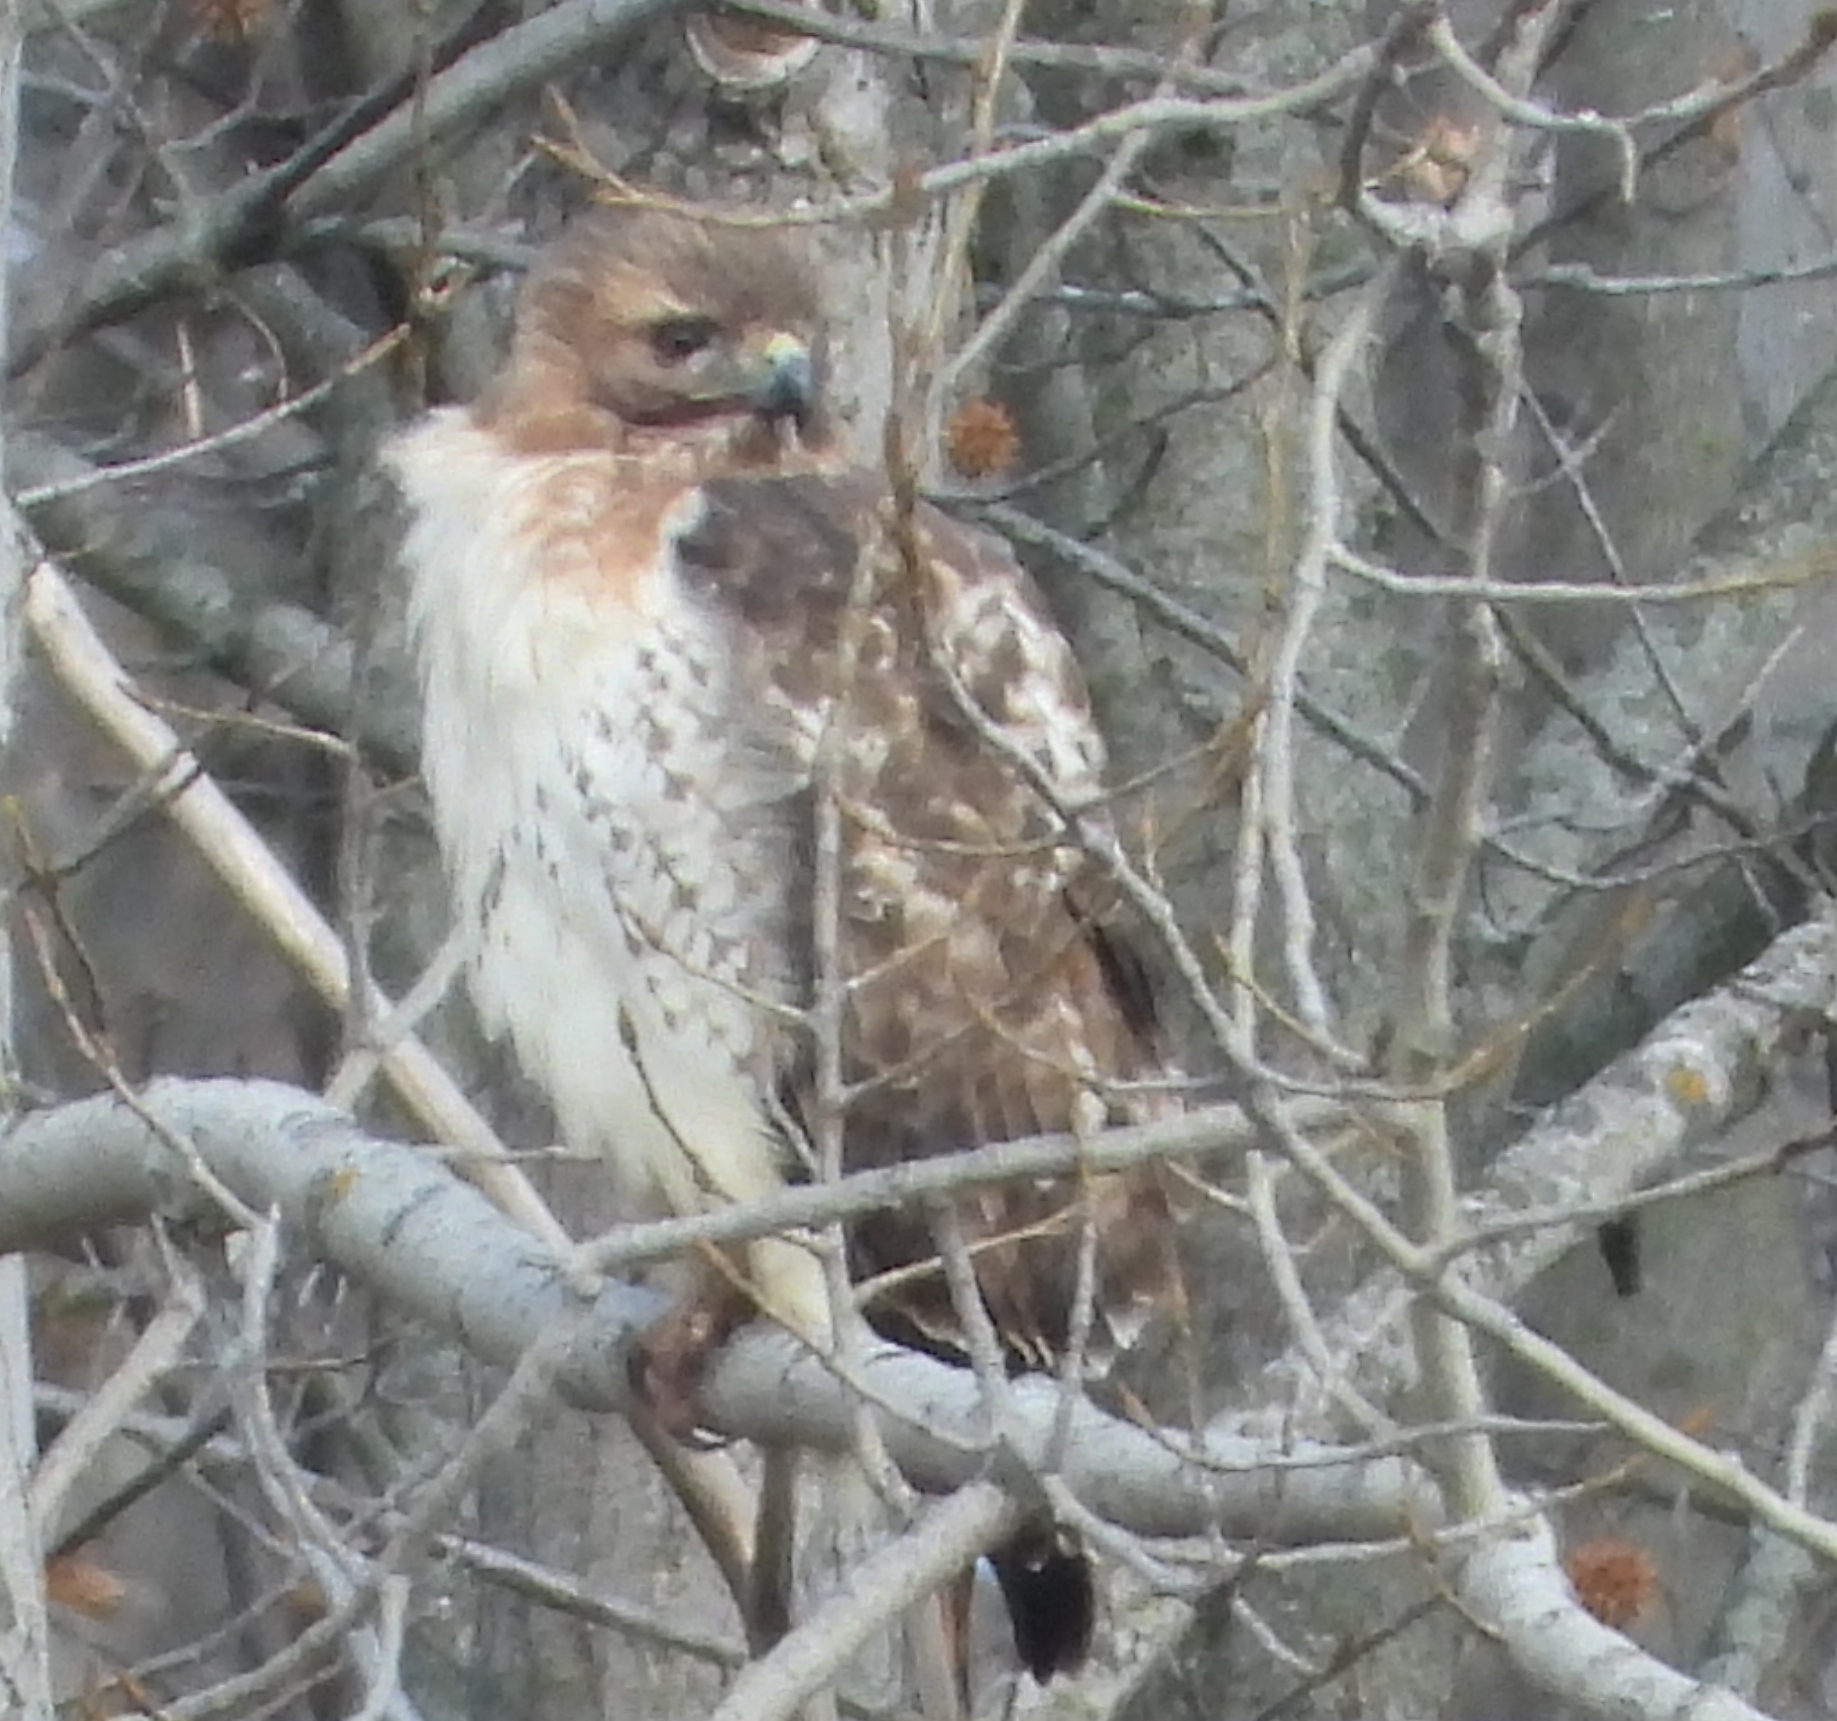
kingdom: Animalia
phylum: Chordata
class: Aves
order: Accipitriformes
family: Accipitridae
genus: Buteo
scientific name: Buteo jamaicensis
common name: Red-tailed hawk
